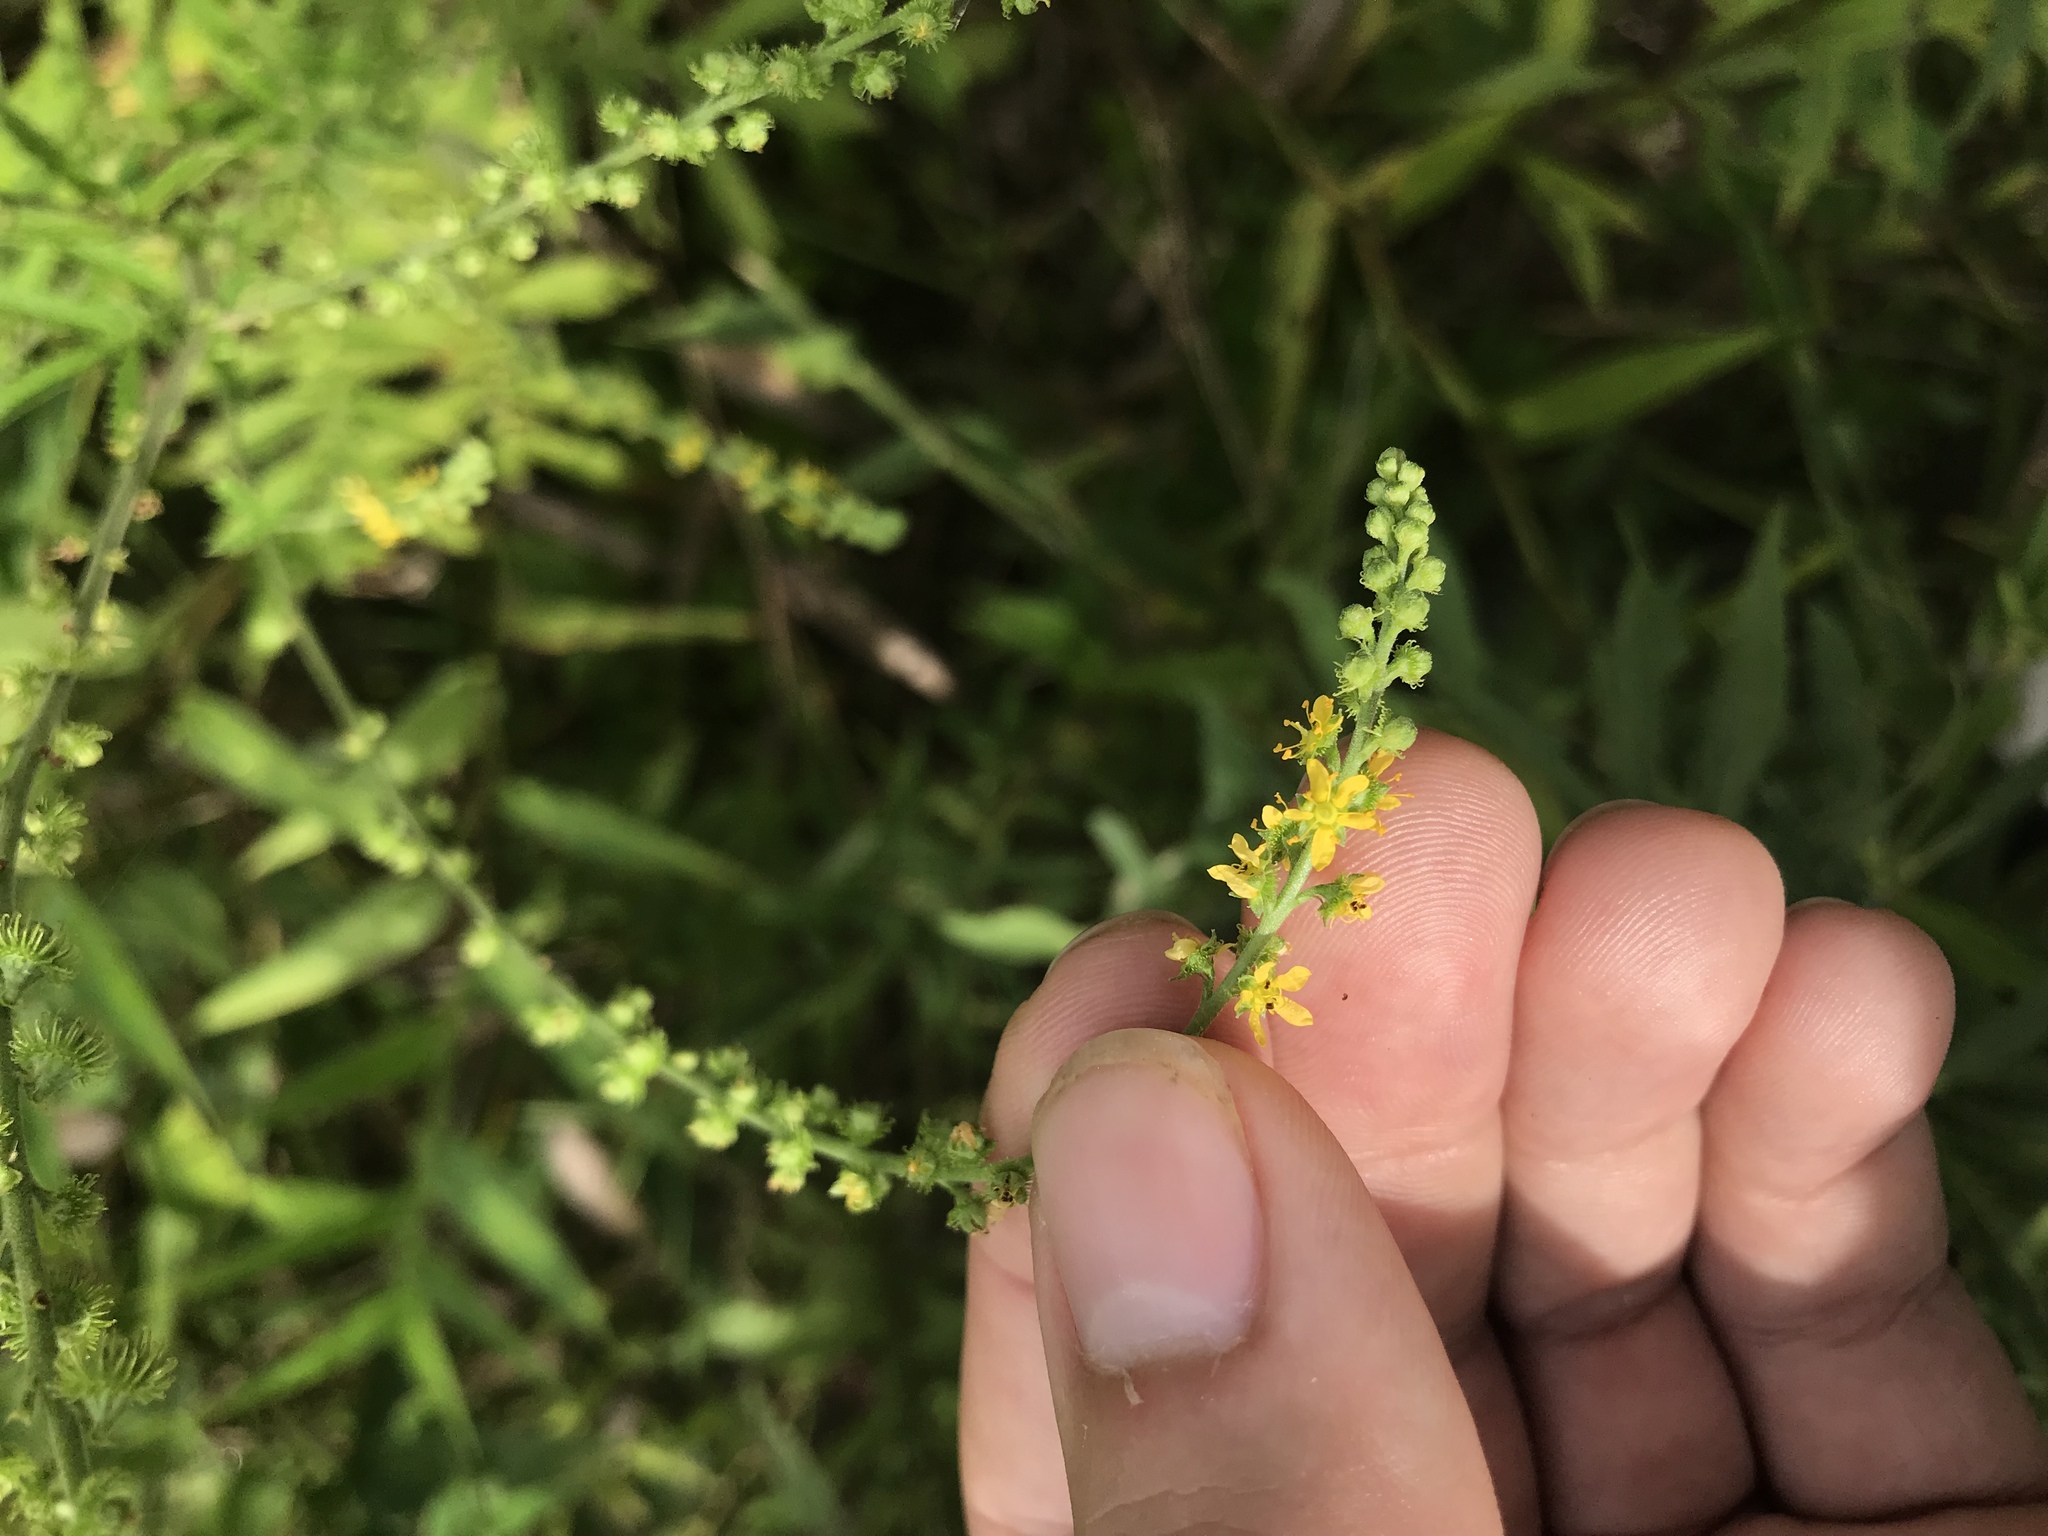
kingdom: Plantae
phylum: Tracheophyta
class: Magnoliopsida
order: Rosales
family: Rosaceae
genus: Agrimonia
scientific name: Agrimonia parviflora
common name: Harvest-lice
